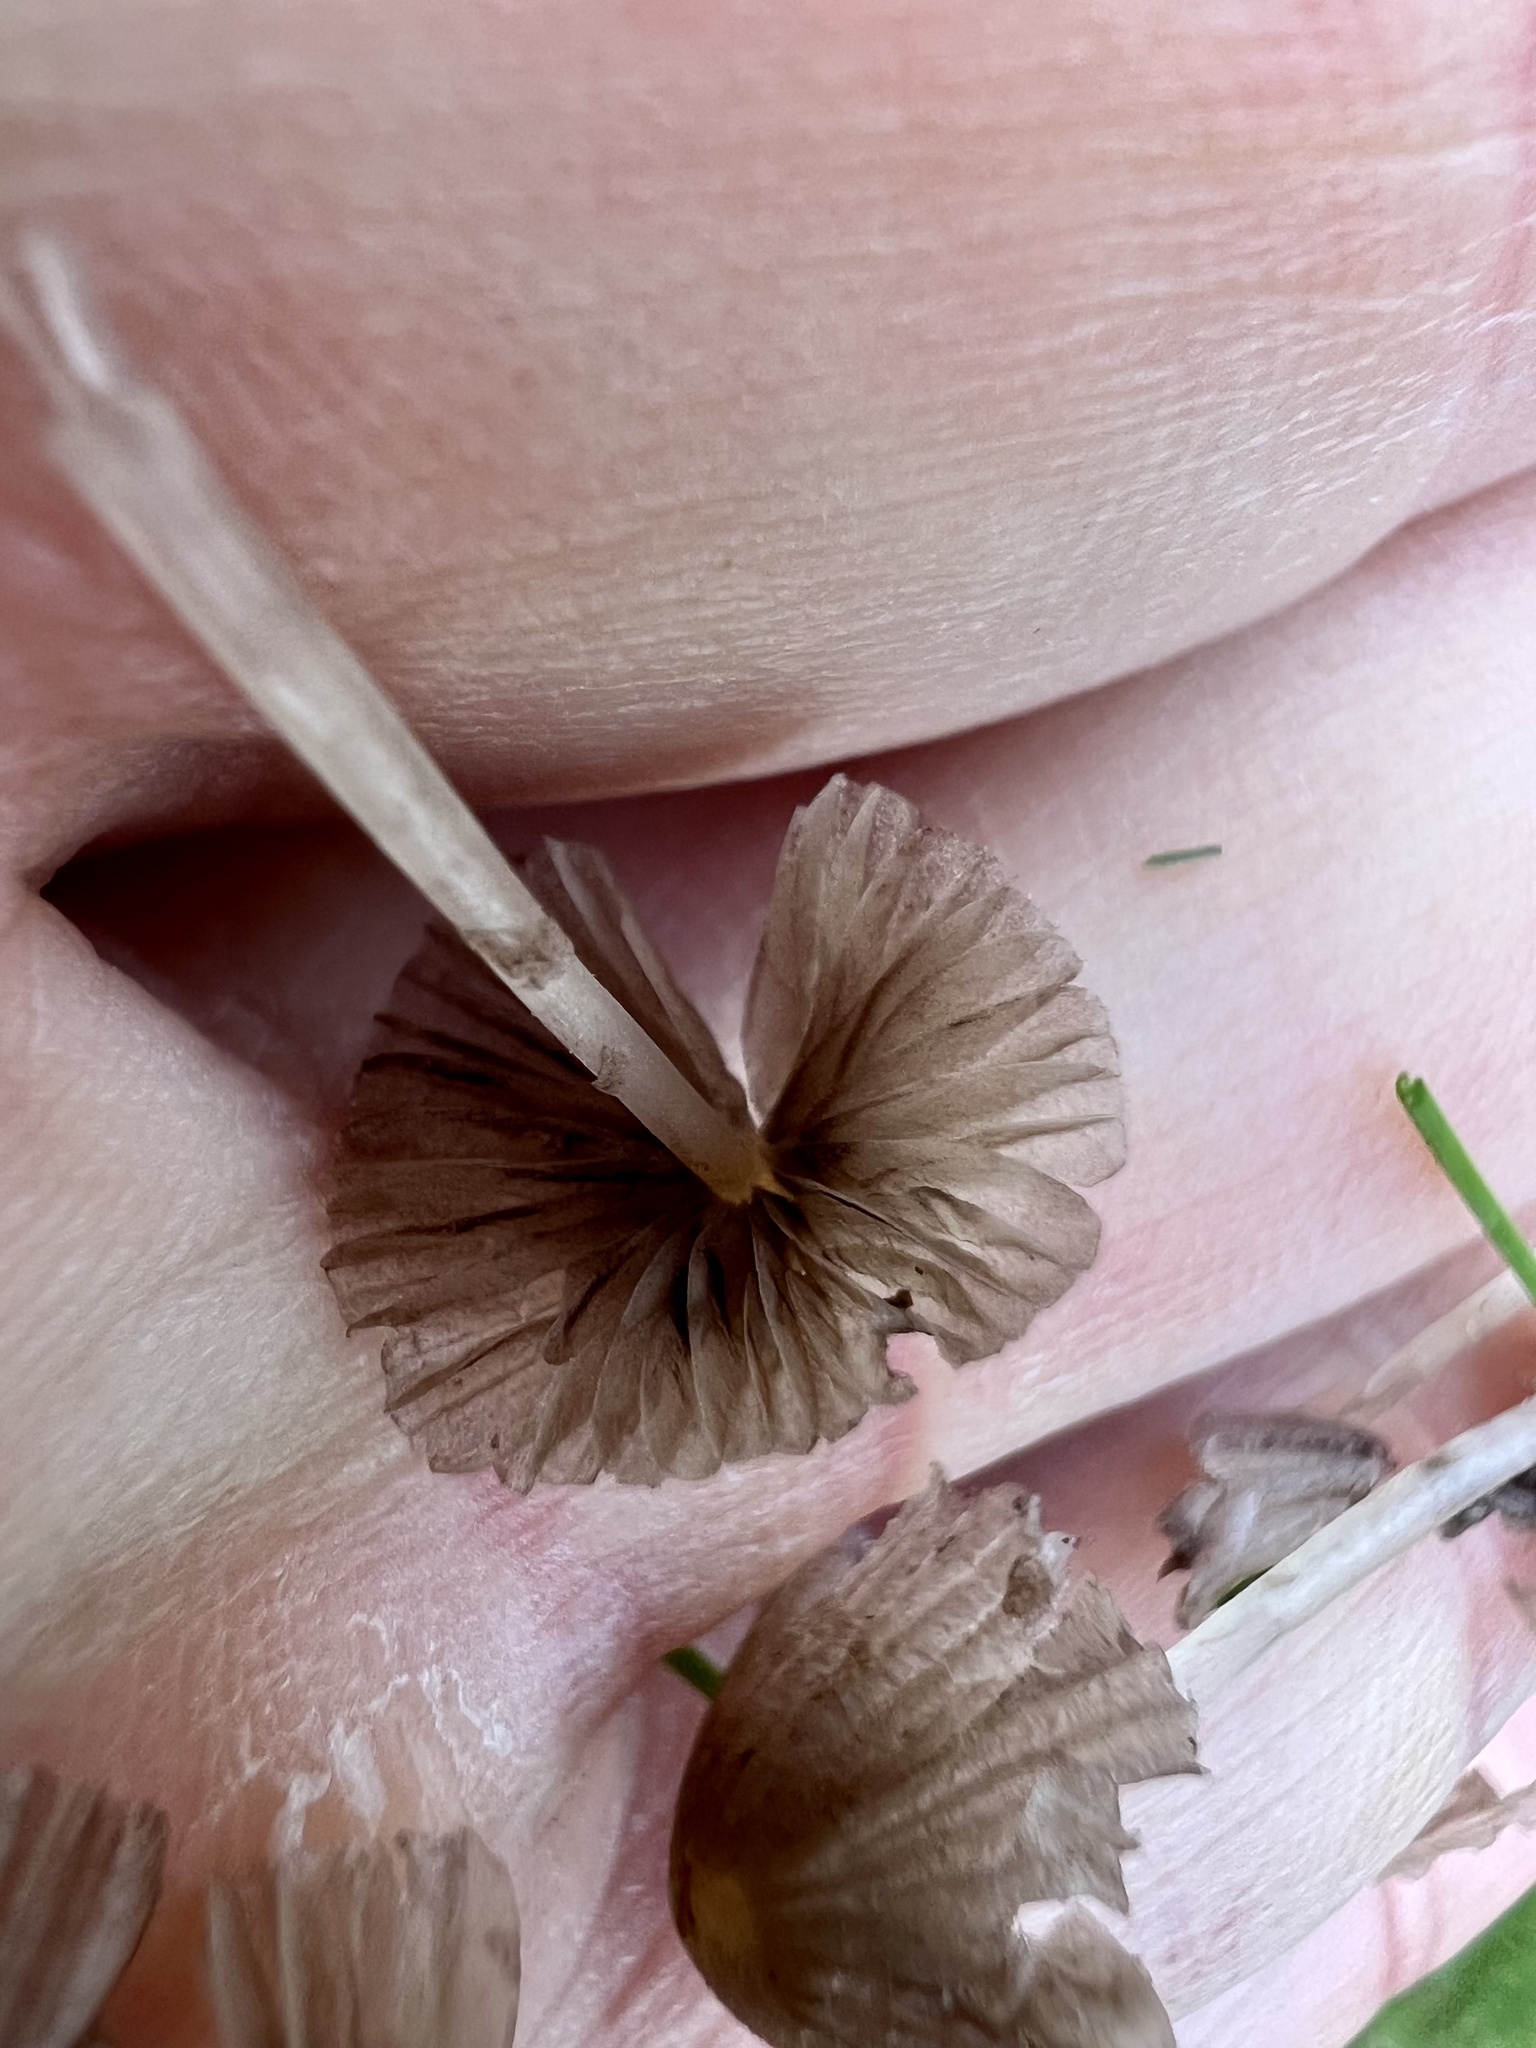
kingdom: Fungi
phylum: Basidiomycota
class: Agaricomycetes
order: Agaricales
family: Psathyrellaceae
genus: Coprinellus
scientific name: Coprinellus disseminatus
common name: Fairies' bonnets
